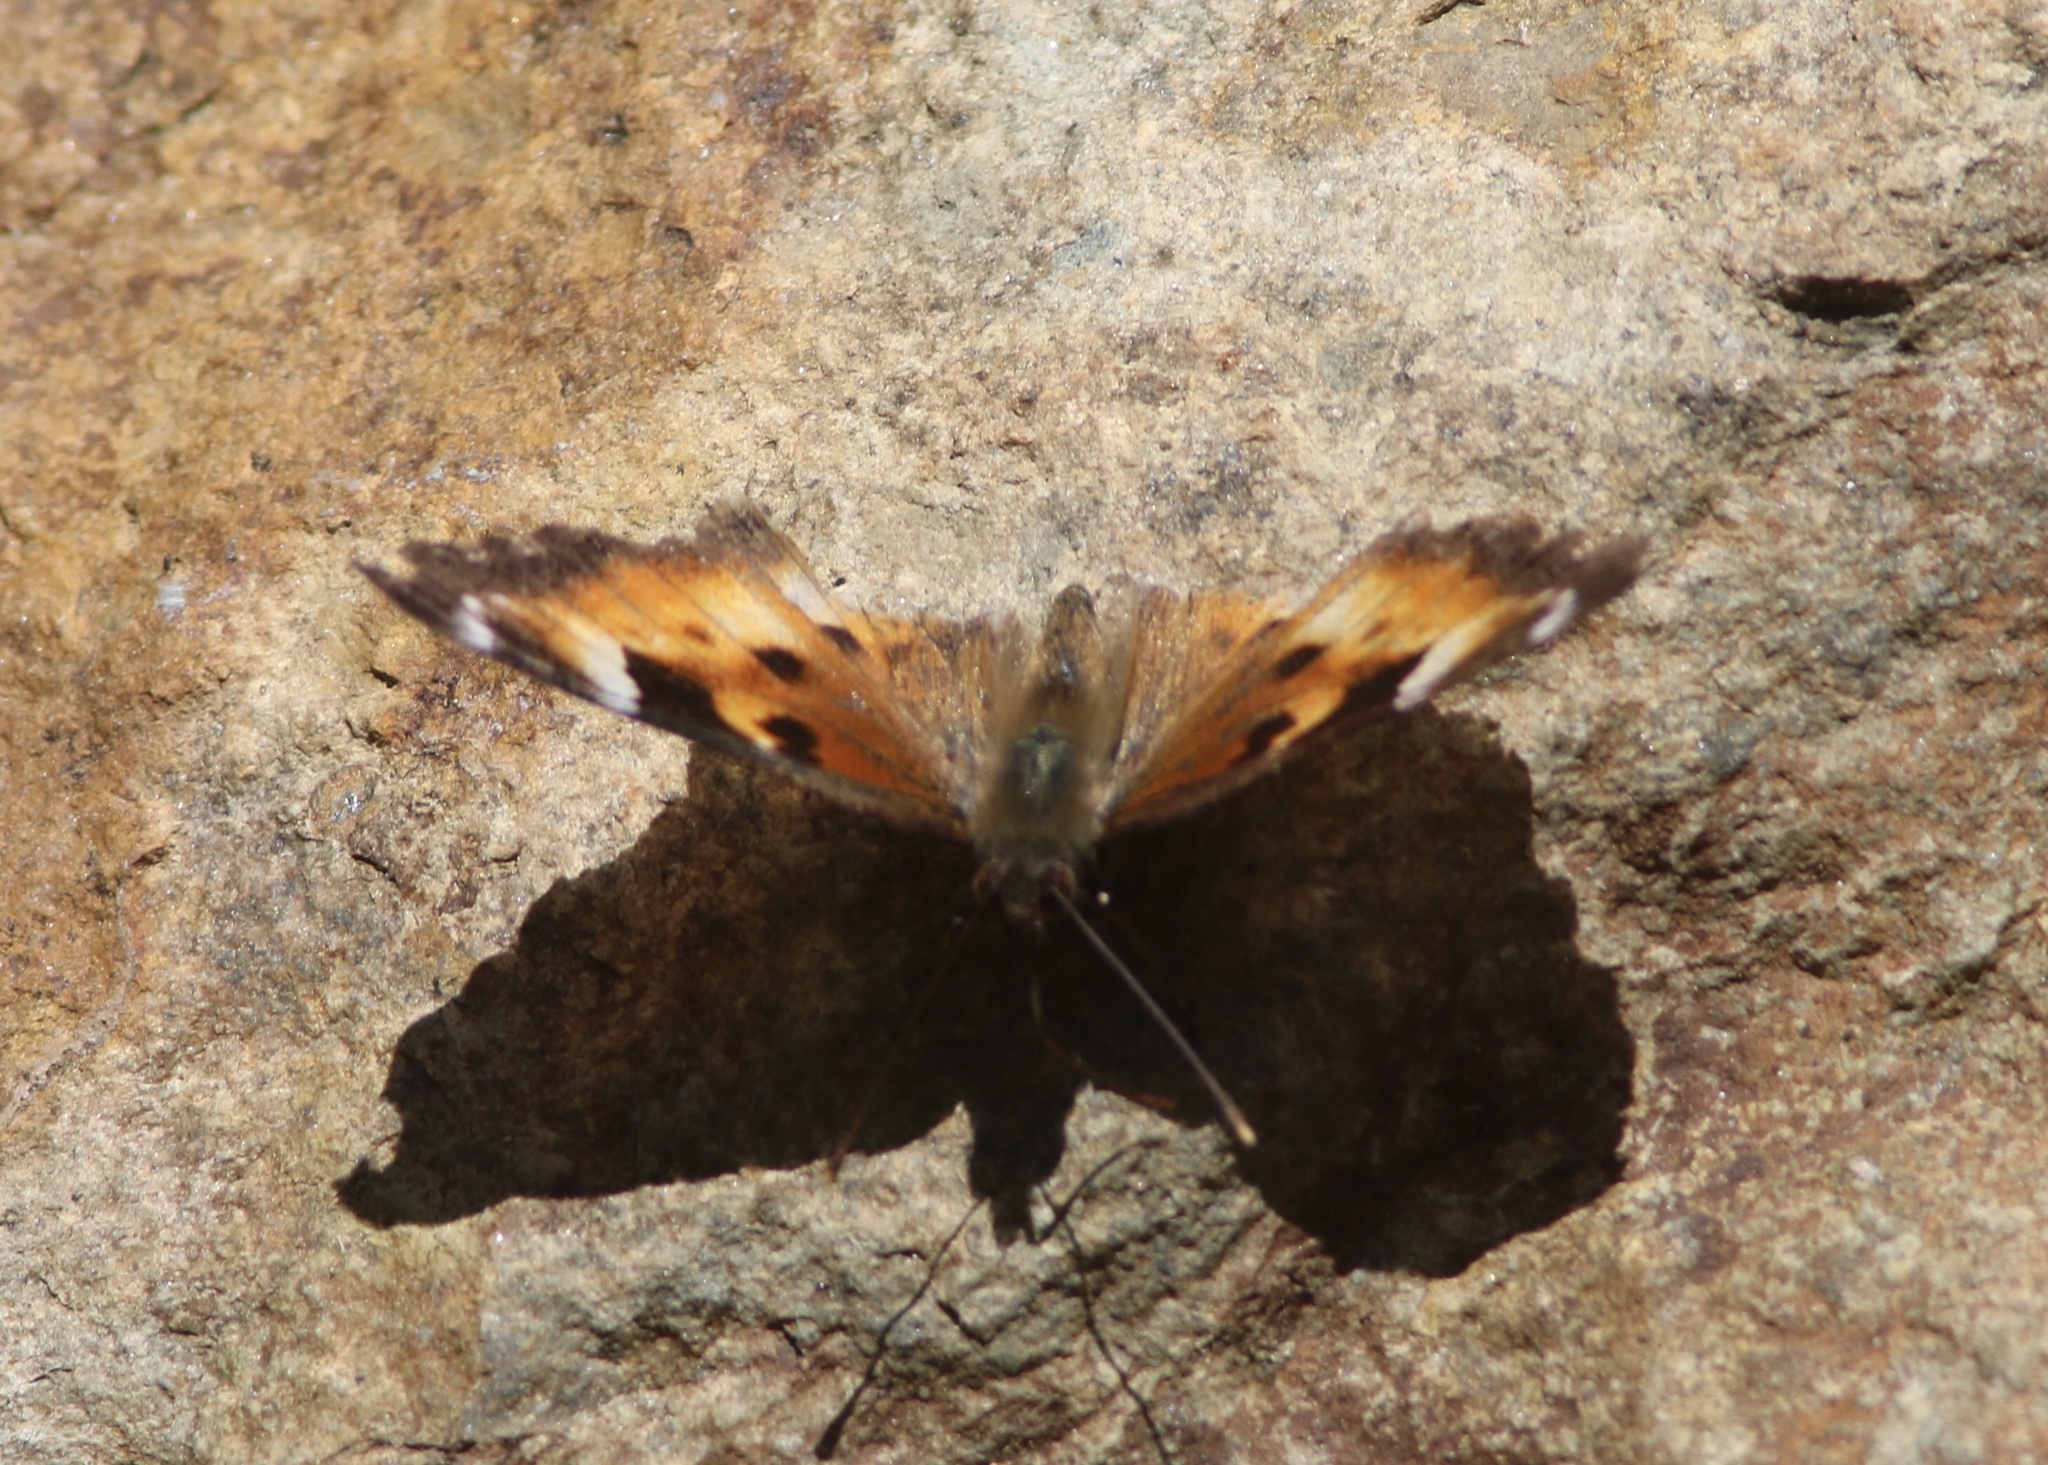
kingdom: Animalia
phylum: Arthropoda
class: Insecta
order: Lepidoptera
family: Nymphalidae
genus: Nymphalis
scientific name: Nymphalis californica
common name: California tortoiseshell
